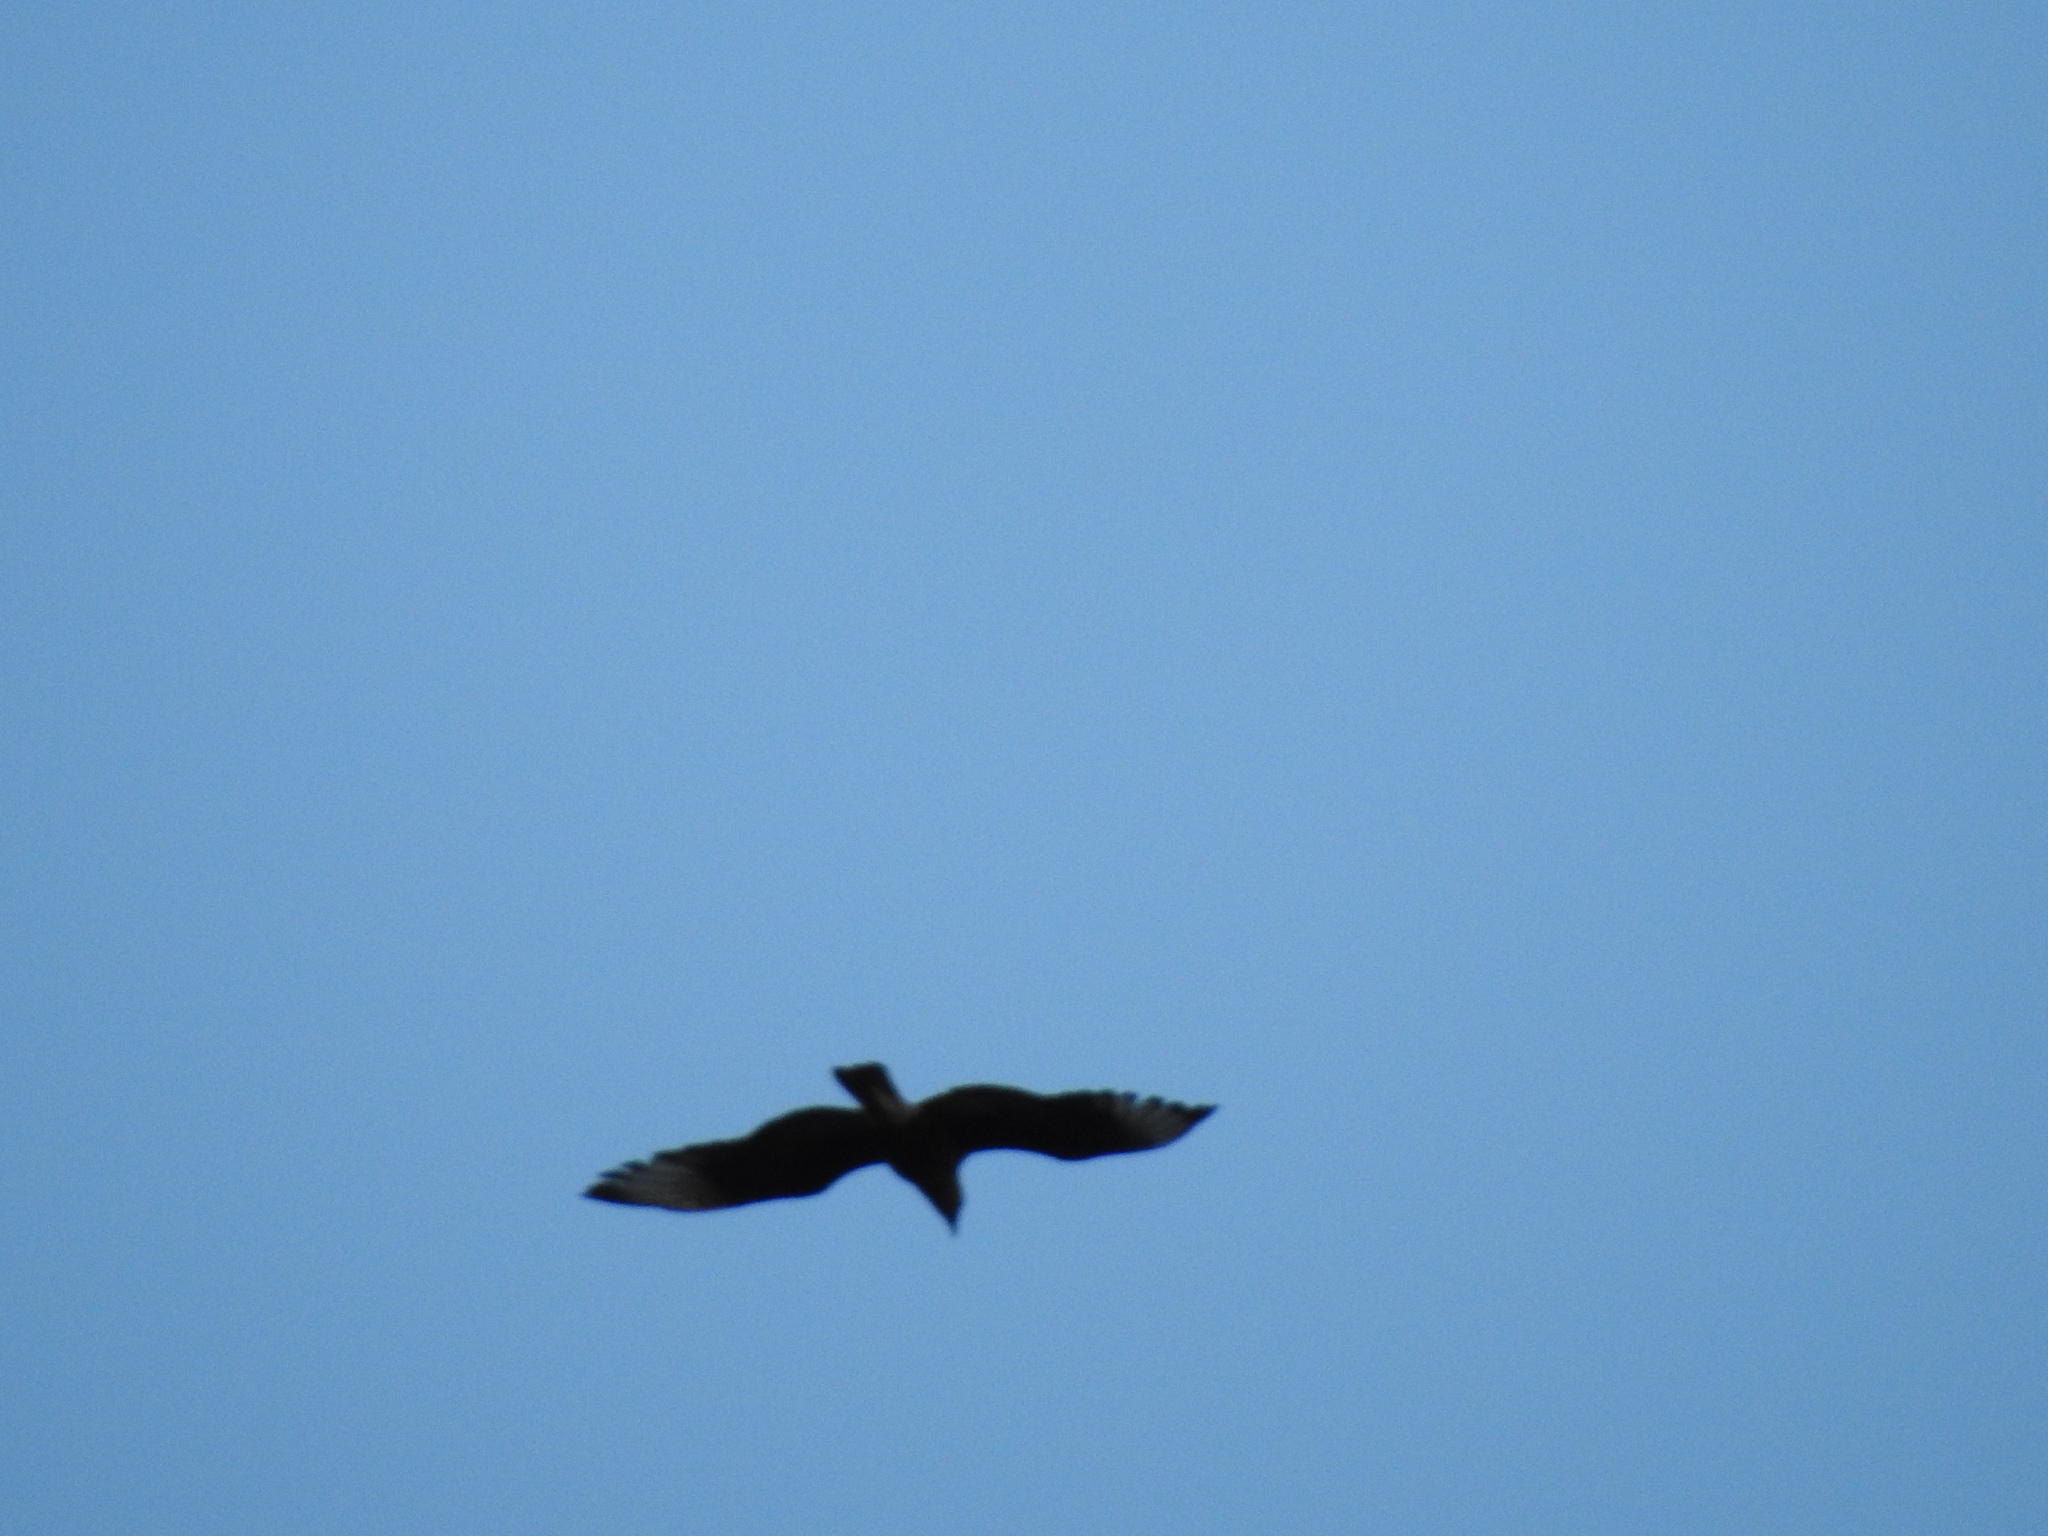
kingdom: Animalia
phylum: Chordata
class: Aves
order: Falconiformes
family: Falconidae
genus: Caracara
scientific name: Caracara plancus
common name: Southern caracara
